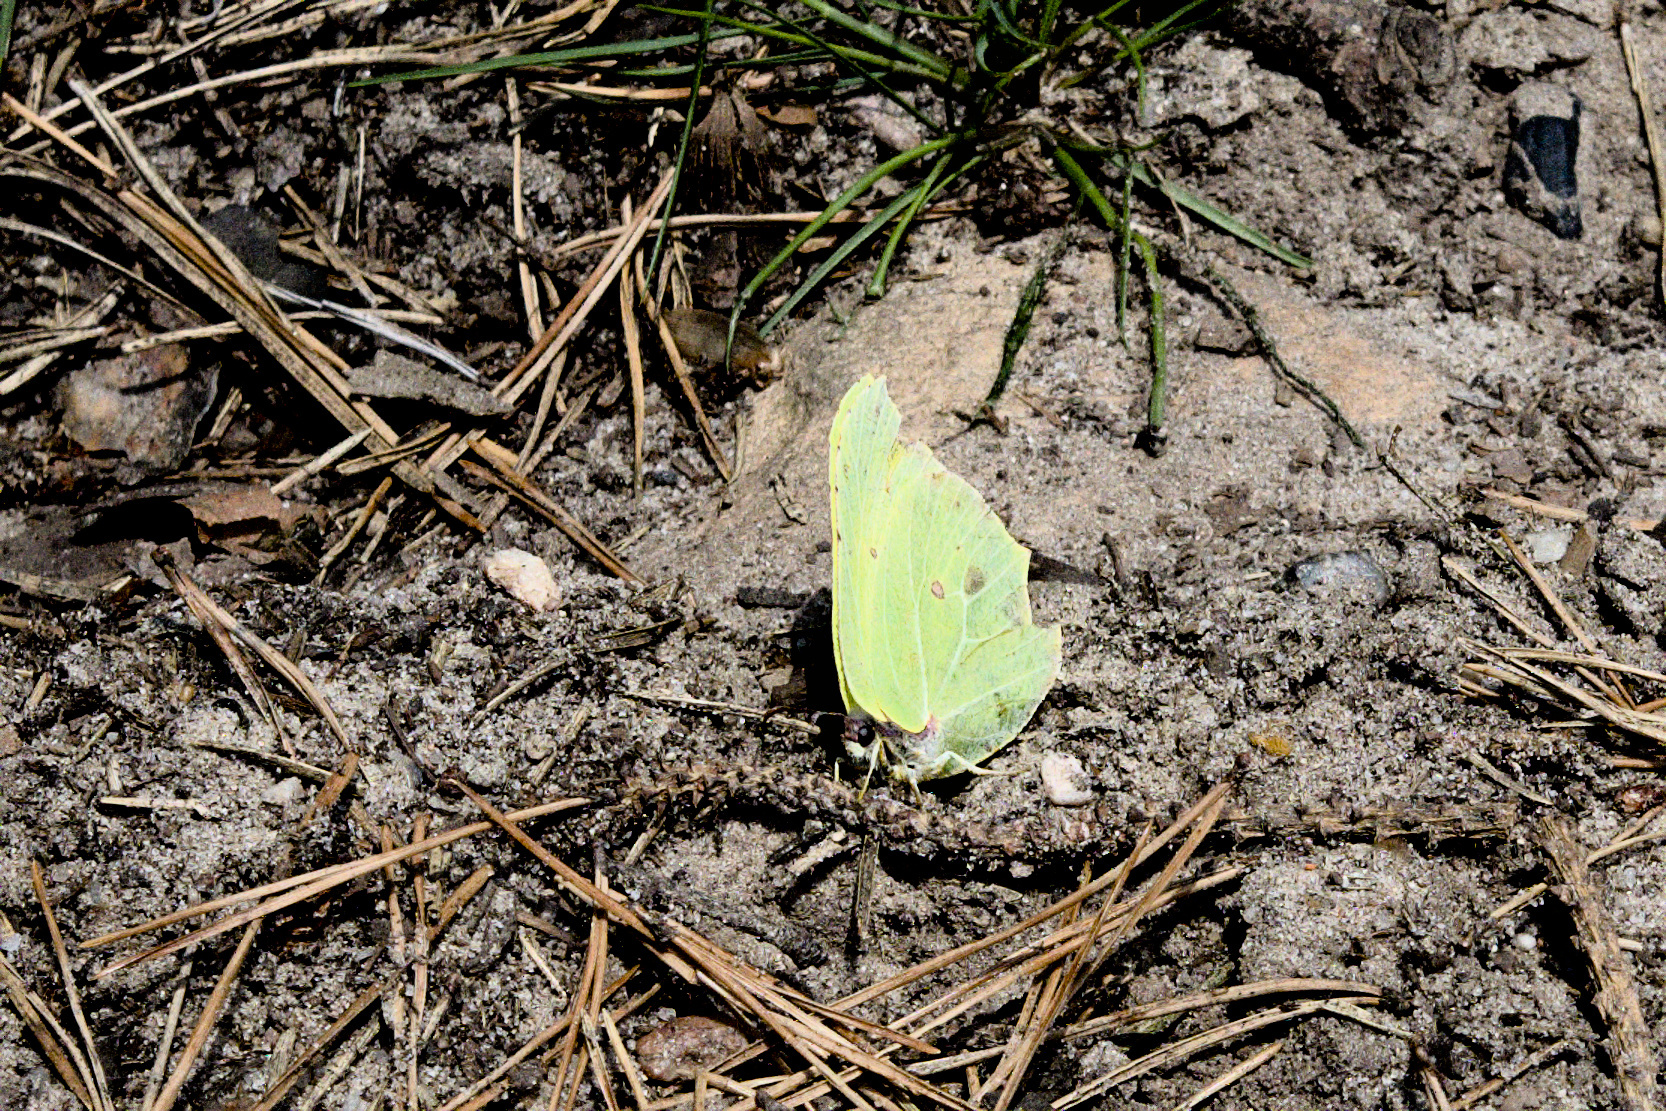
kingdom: Animalia
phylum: Arthropoda
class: Insecta
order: Lepidoptera
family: Pieridae
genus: Gonepteryx
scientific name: Gonepteryx rhamni
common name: Brimstone
